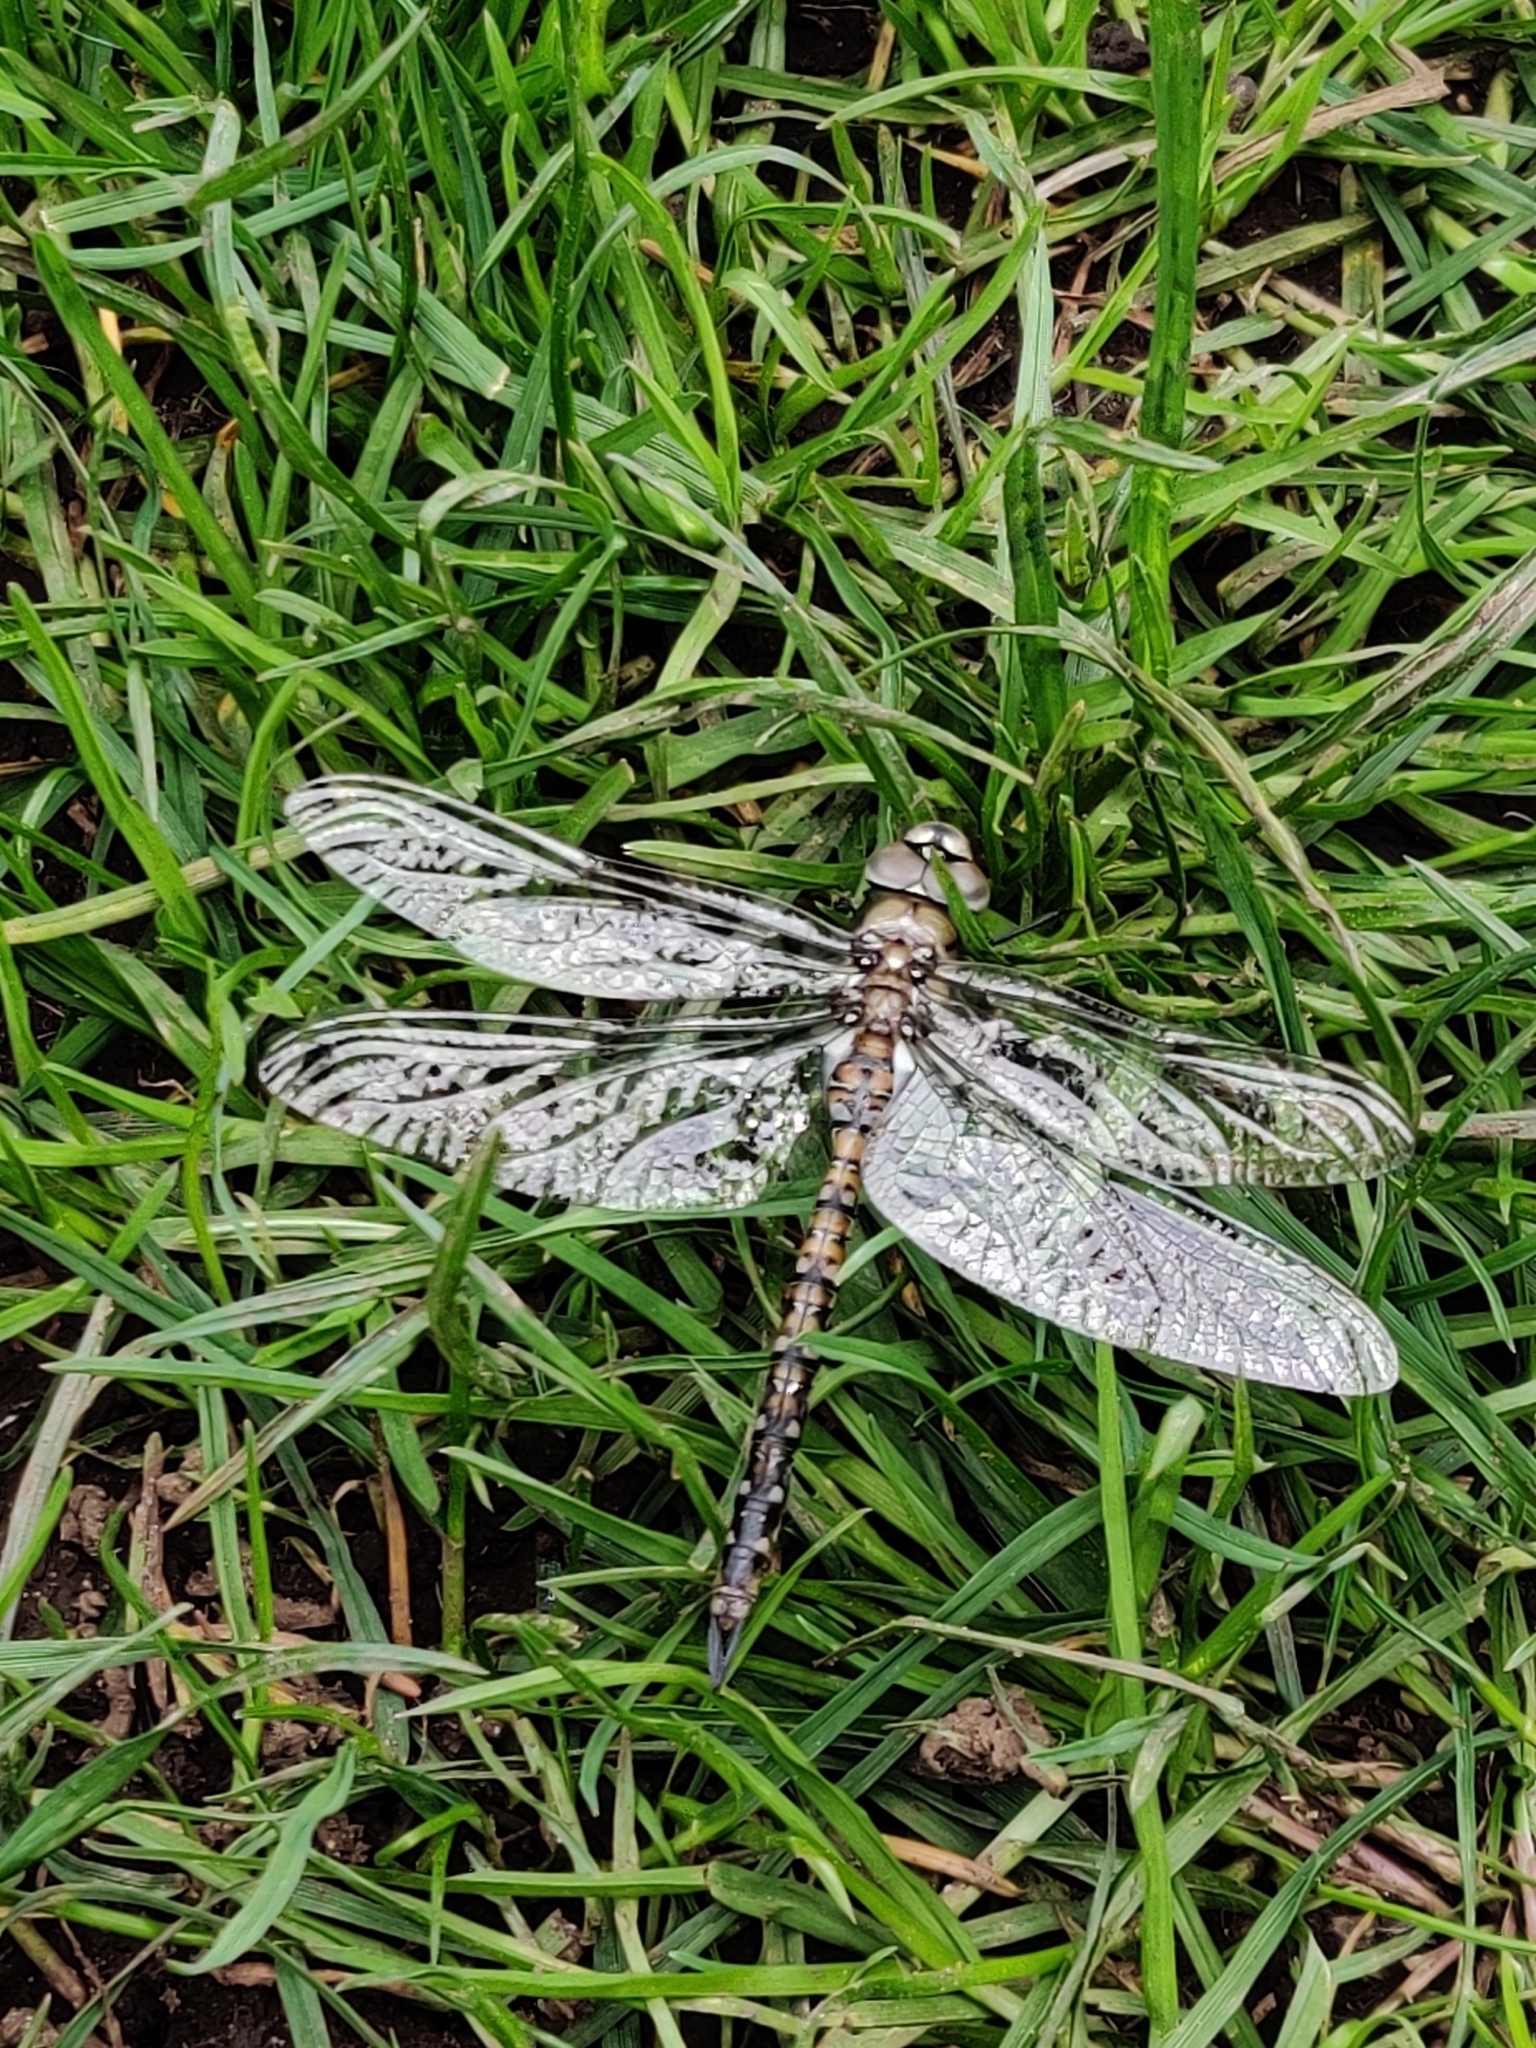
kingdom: Animalia
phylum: Arthropoda
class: Insecta
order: Odonata
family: Aeshnidae
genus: Rhionaeschna
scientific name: Rhionaeschna californica
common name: California darner
